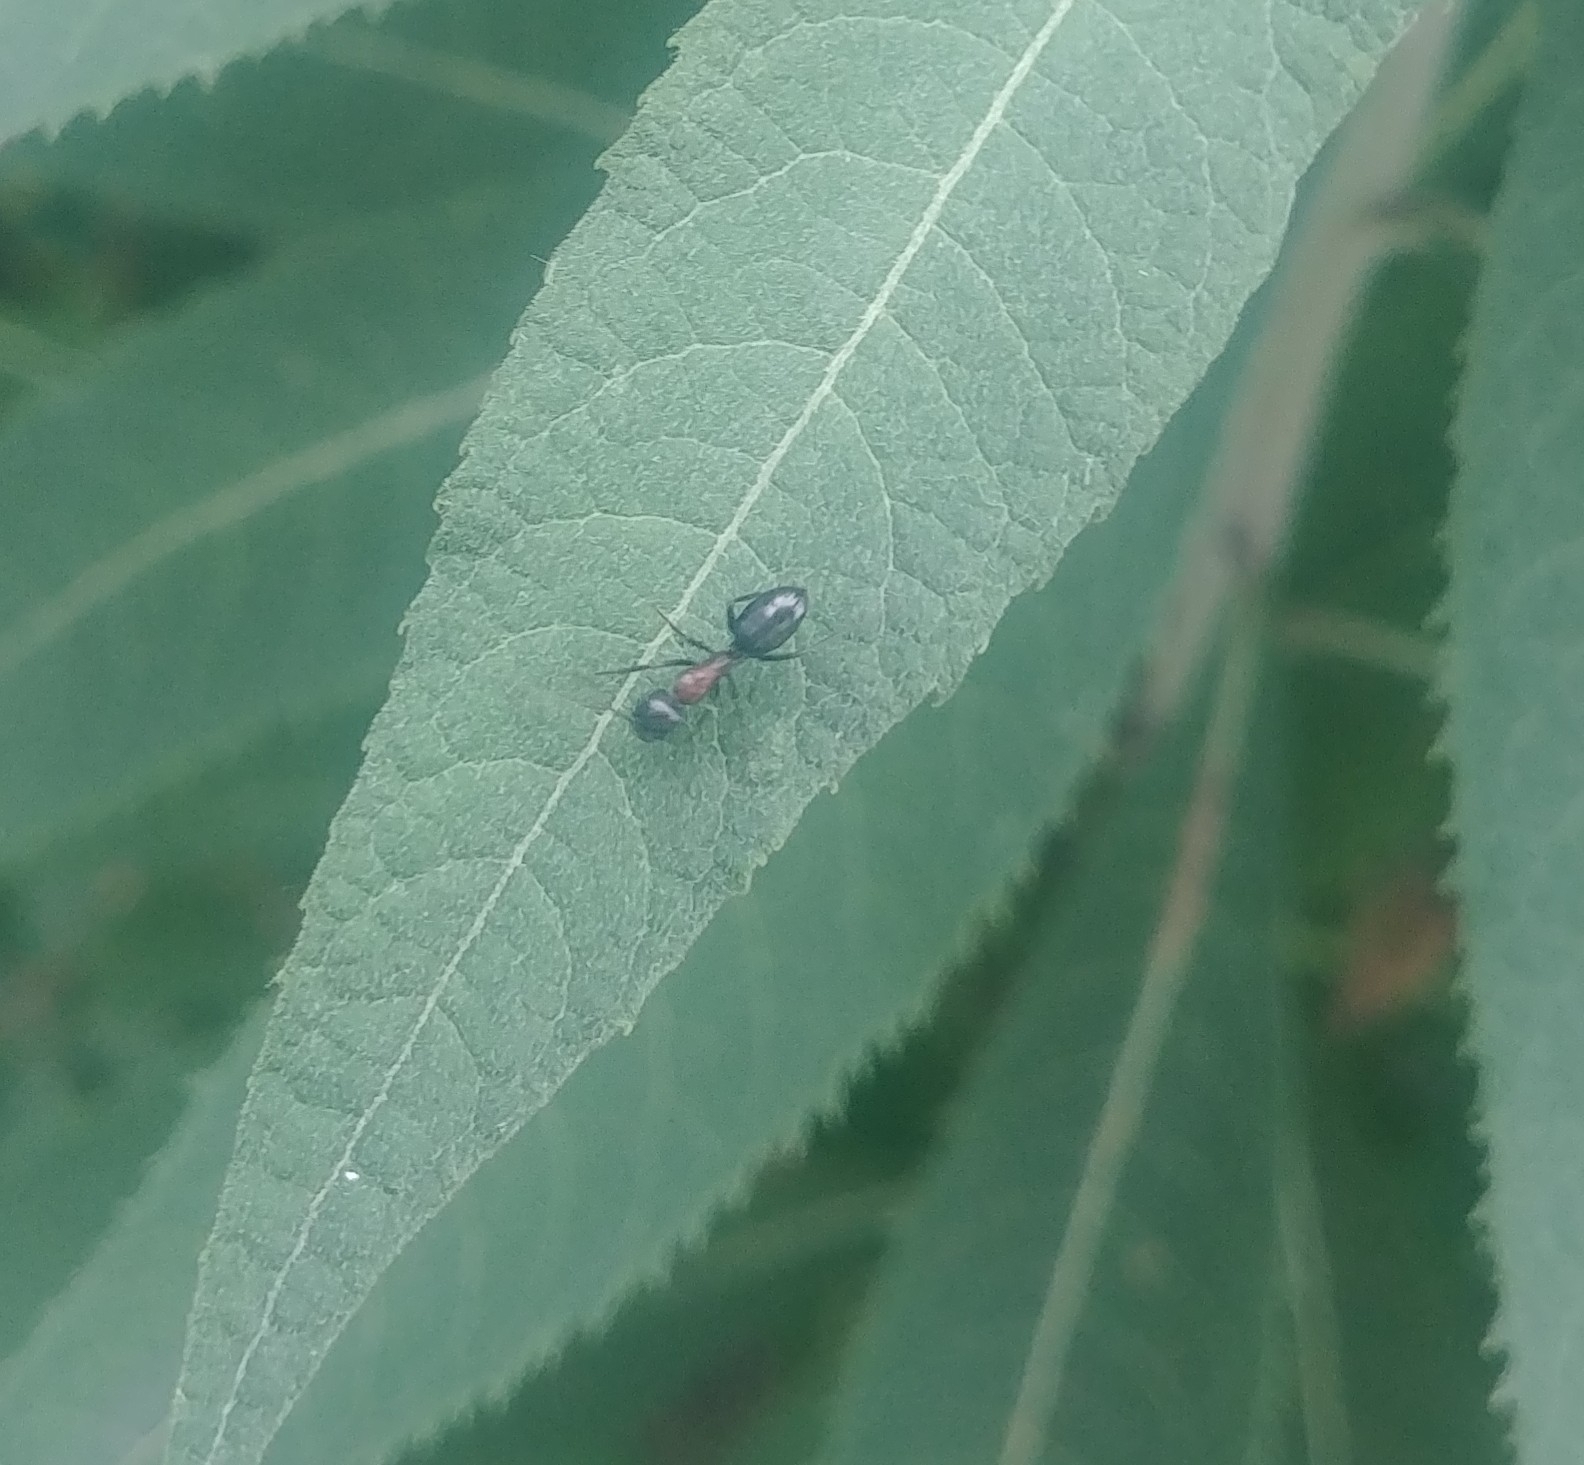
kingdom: Animalia
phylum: Arthropoda
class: Insecta
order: Hymenoptera
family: Formicidae
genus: Camponotus
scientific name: Camponotus novaeboracensis
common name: New york carpenter ant
